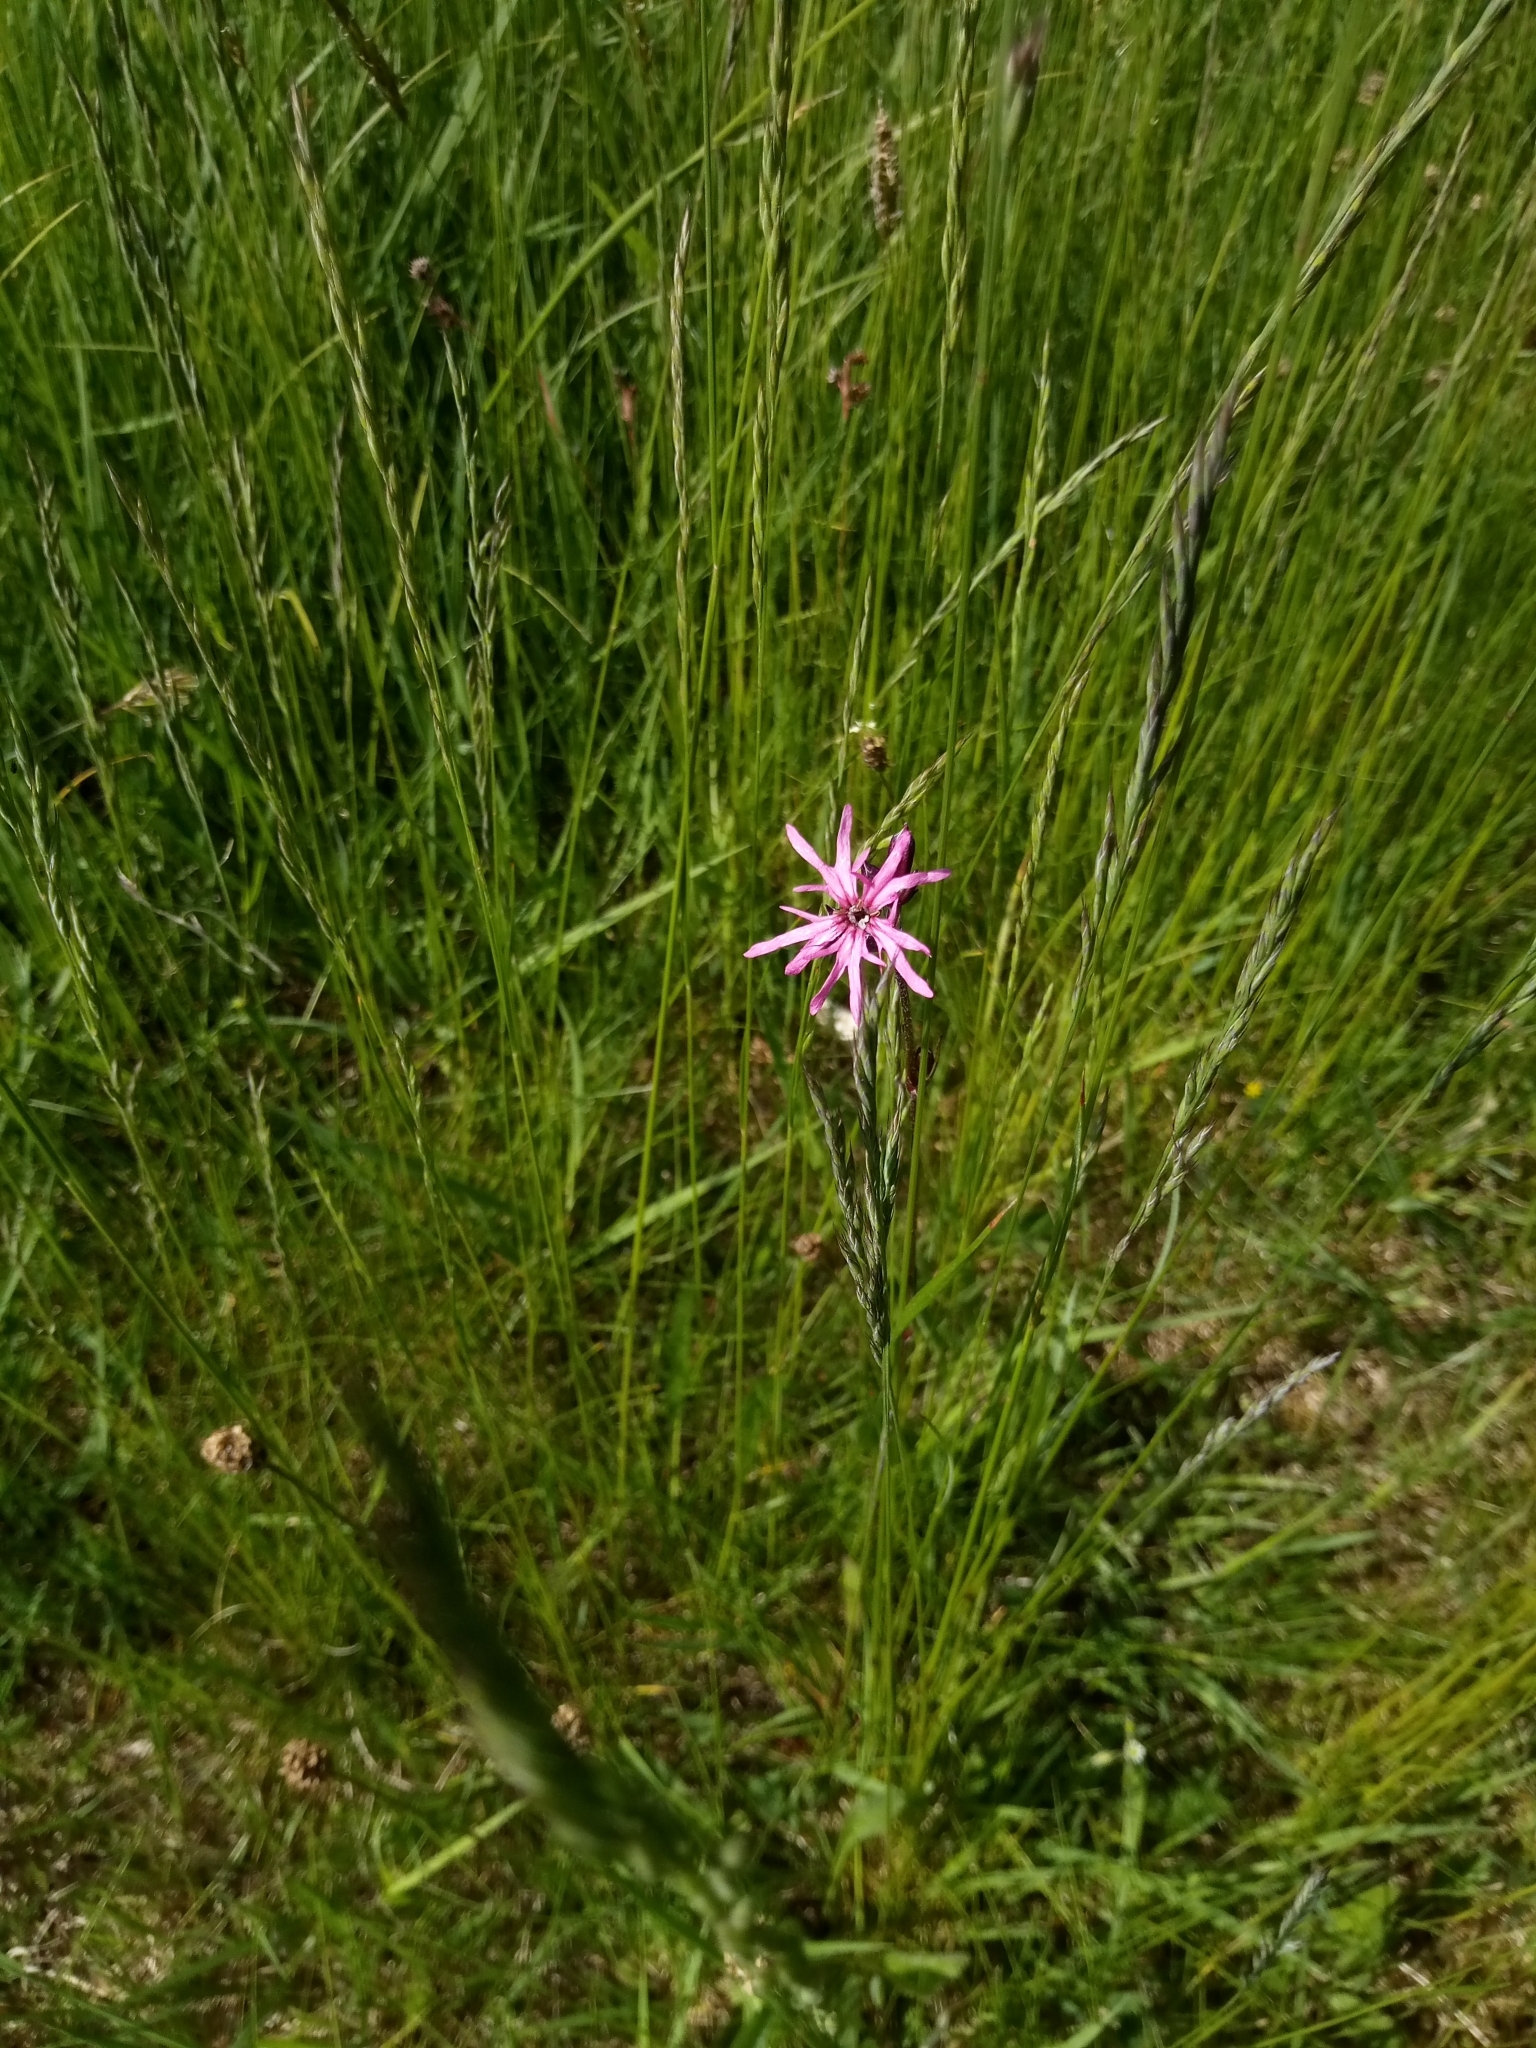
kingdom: Plantae
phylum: Tracheophyta
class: Magnoliopsida
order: Caryophyllales
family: Caryophyllaceae
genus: Silene
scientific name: Silene flos-cuculi
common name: Ragged-robin
